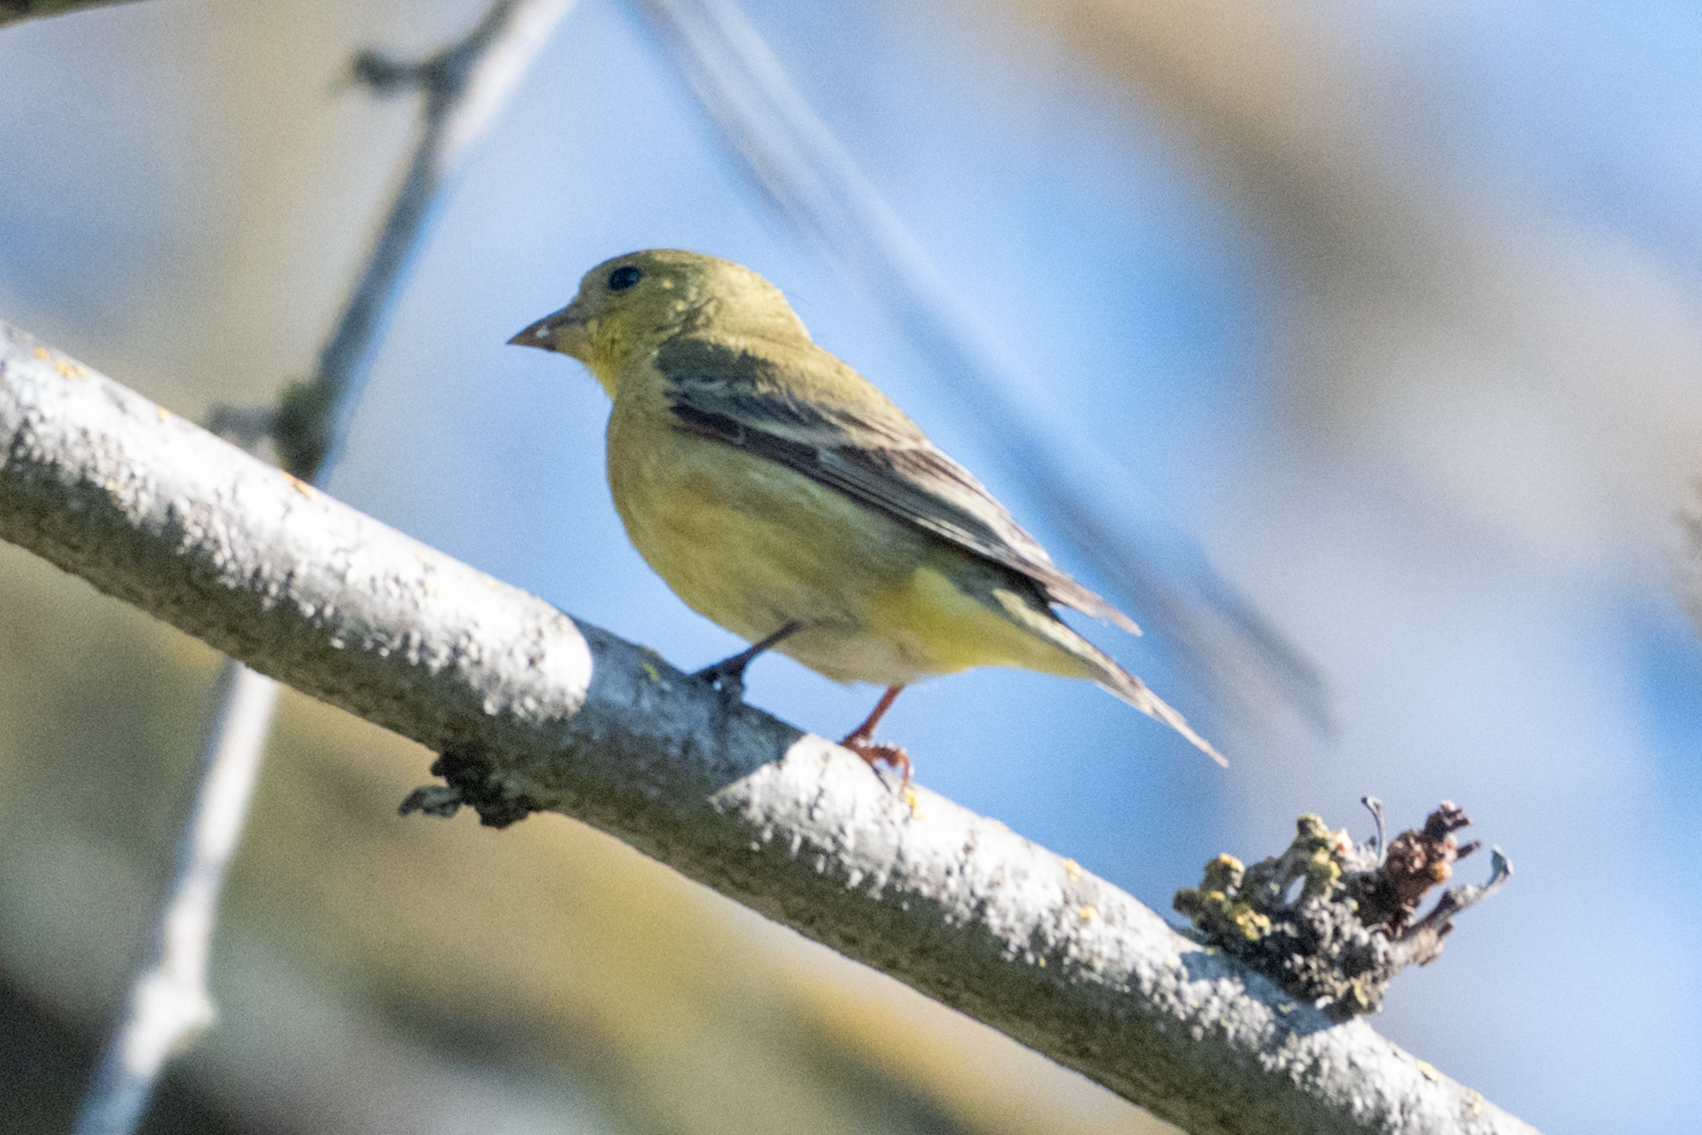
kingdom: Animalia
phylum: Chordata
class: Aves
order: Passeriformes
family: Fringillidae
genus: Spinus
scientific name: Spinus psaltria
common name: Lesser goldfinch
